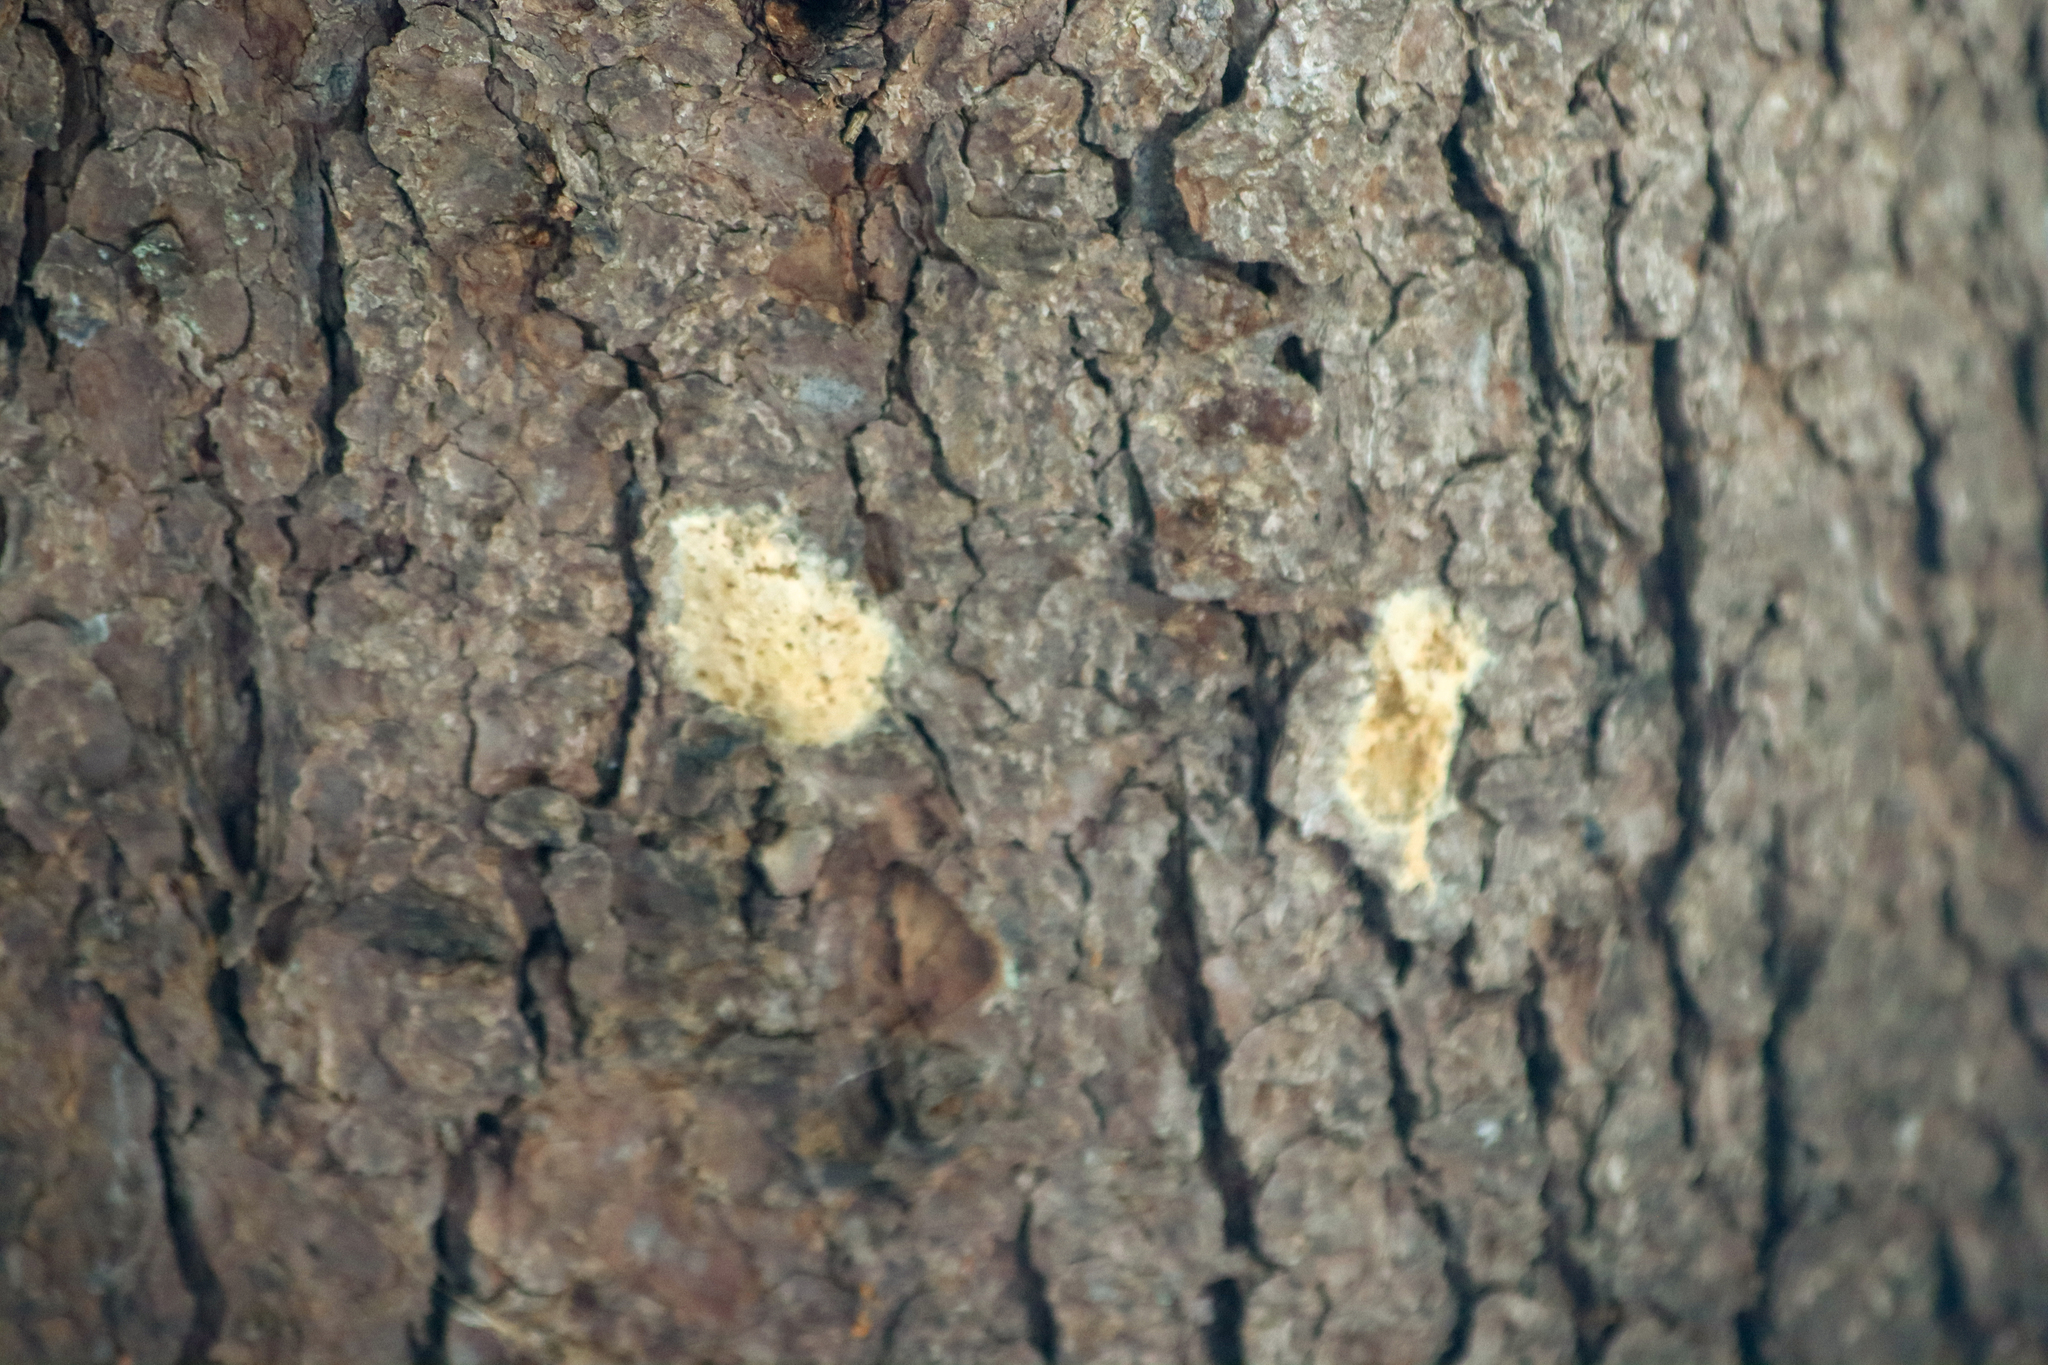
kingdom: Animalia
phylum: Arthropoda
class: Insecta
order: Lepidoptera
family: Erebidae
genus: Lymantria
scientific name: Lymantria dispar
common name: Gypsy moth
